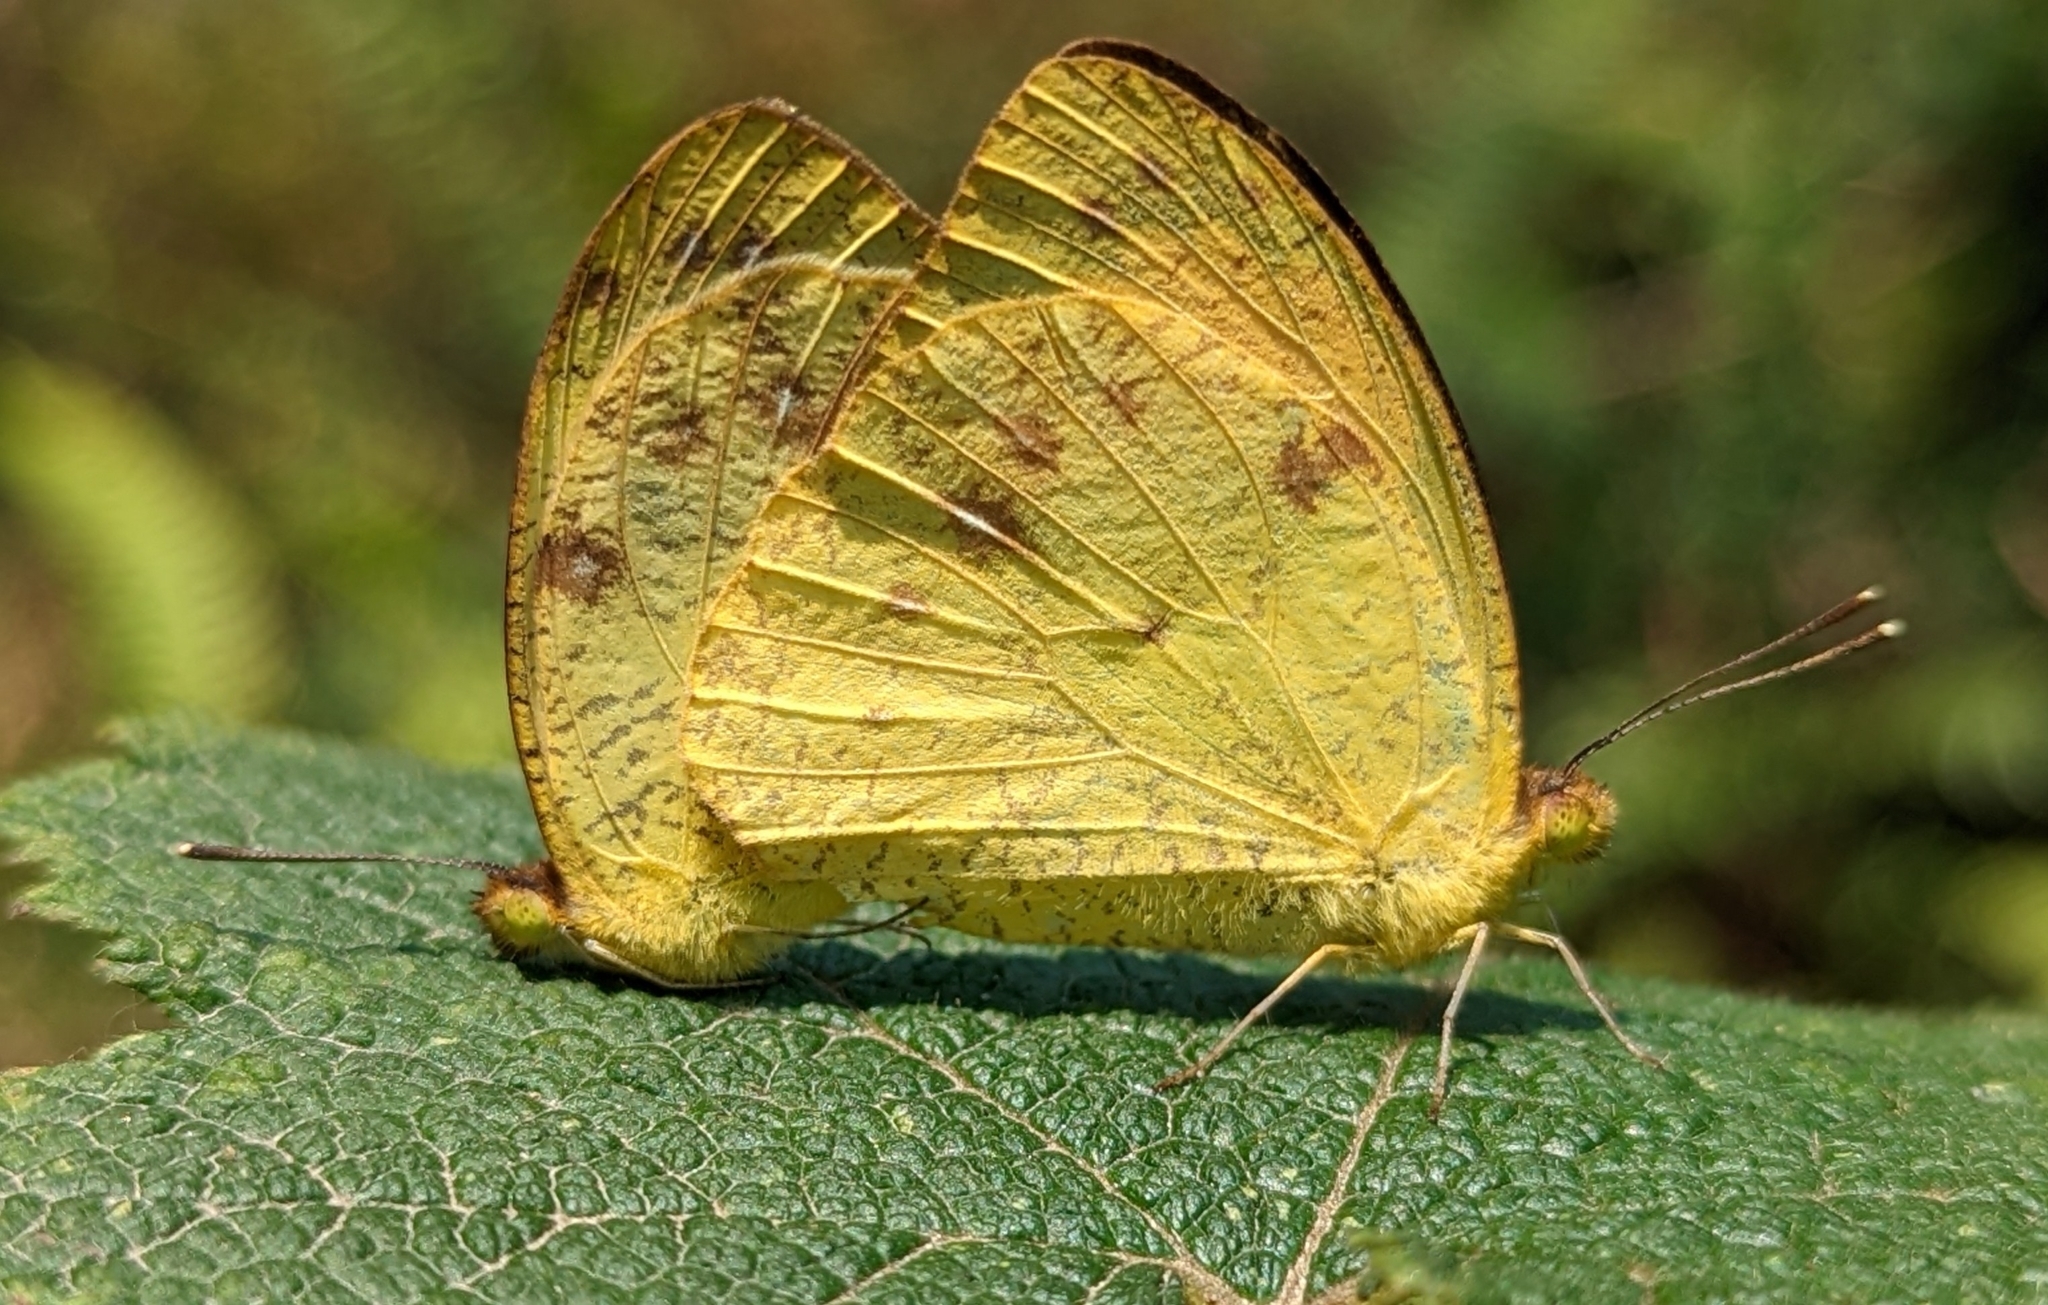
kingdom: Animalia
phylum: Arthropoda
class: Insecta
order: Lepidoptera
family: Pieridae
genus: Ixias
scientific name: Ixias pyrene
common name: Yellow orange tip
